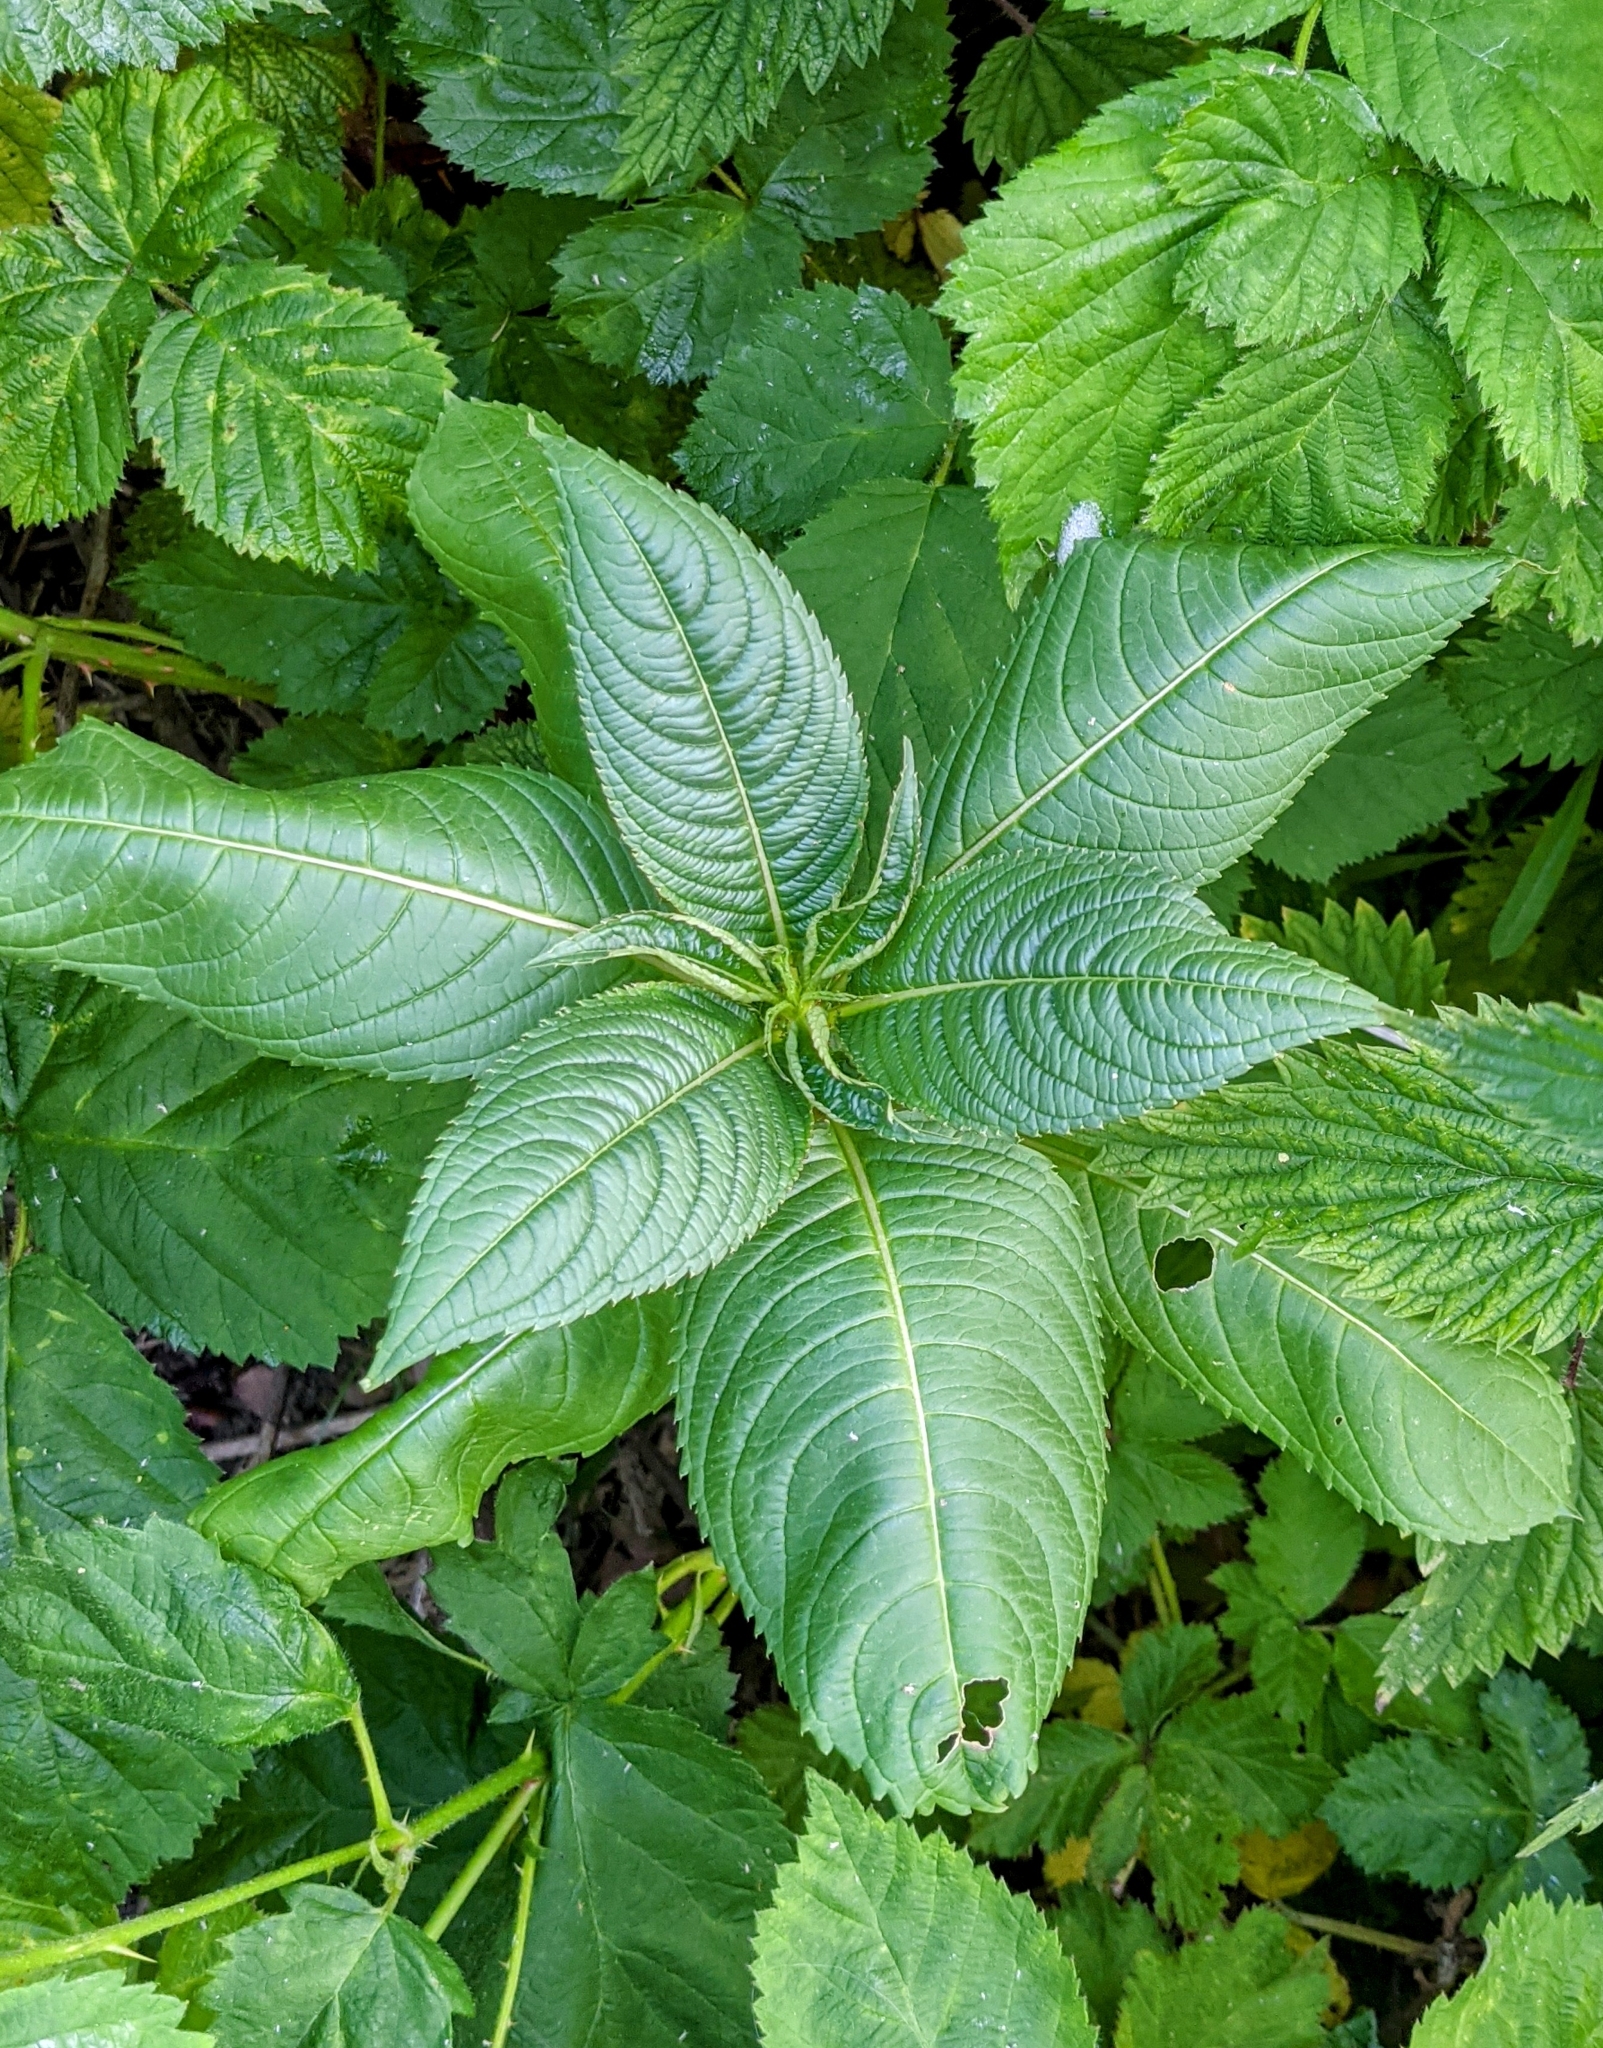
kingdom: Plantae
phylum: Tracheophyta
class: Magnoliopsida
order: Ericales
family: Balsaminaceae
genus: Impatiens
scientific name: Impatiens glandulifera
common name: Himalayan balsam
